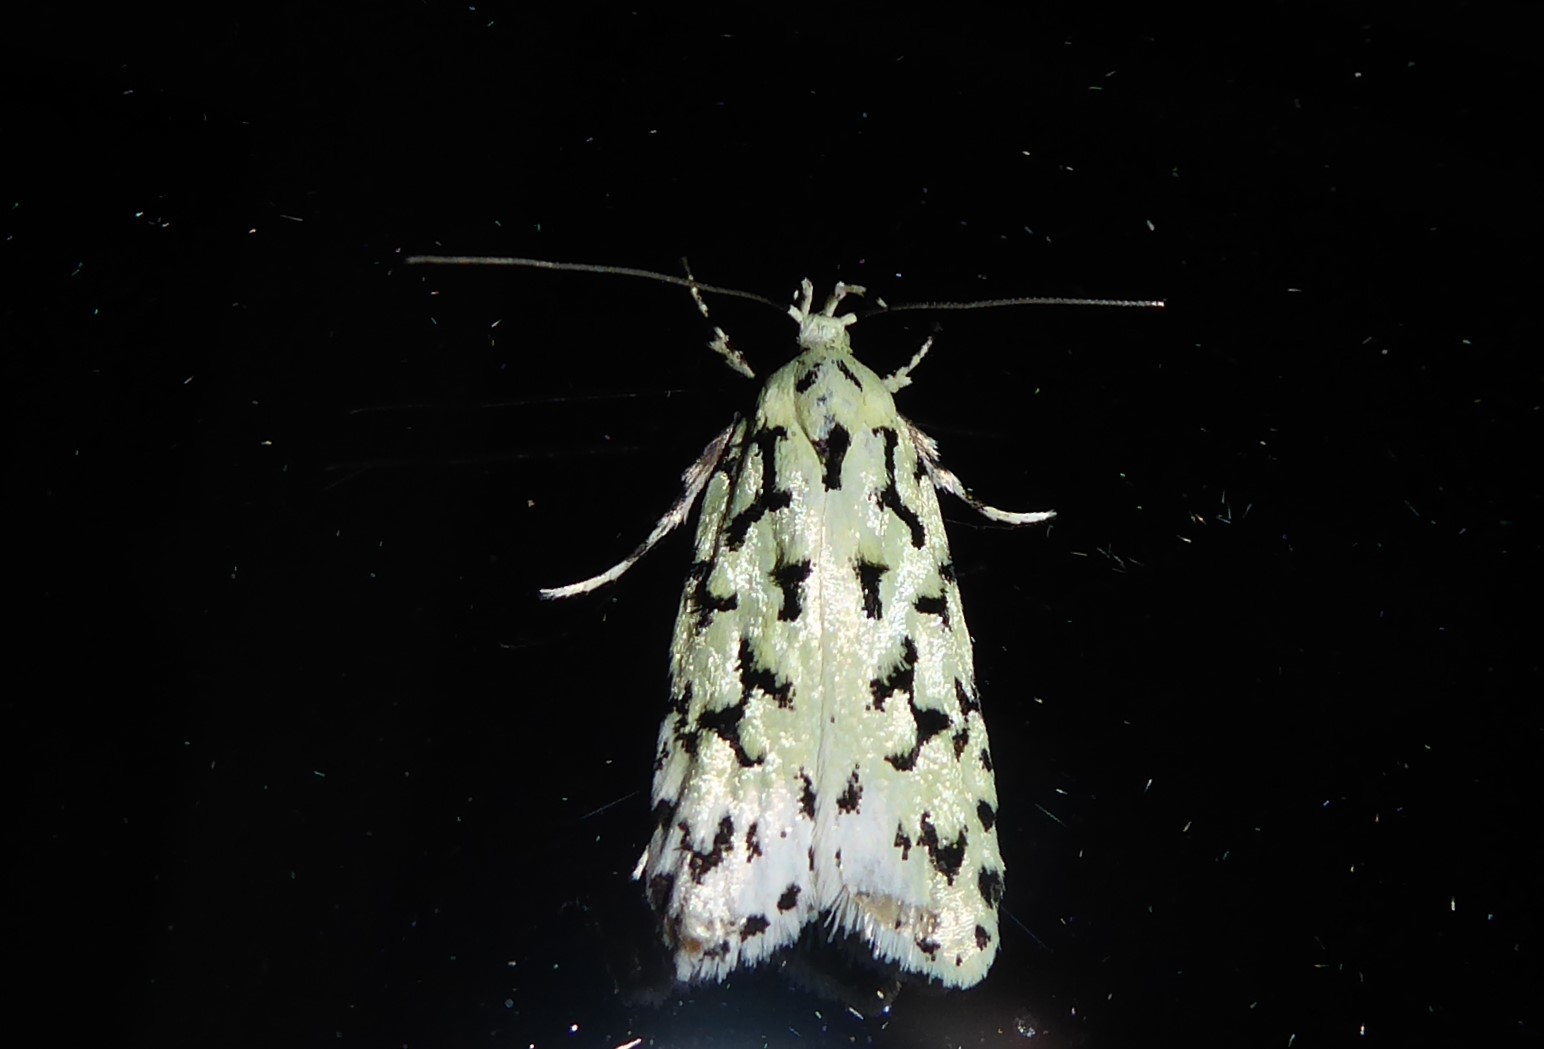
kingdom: Animalia
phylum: Arthropoda
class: Insecta
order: Lepidoptera
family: Oecophoridae
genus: Izatha
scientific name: Izatha huttoni
